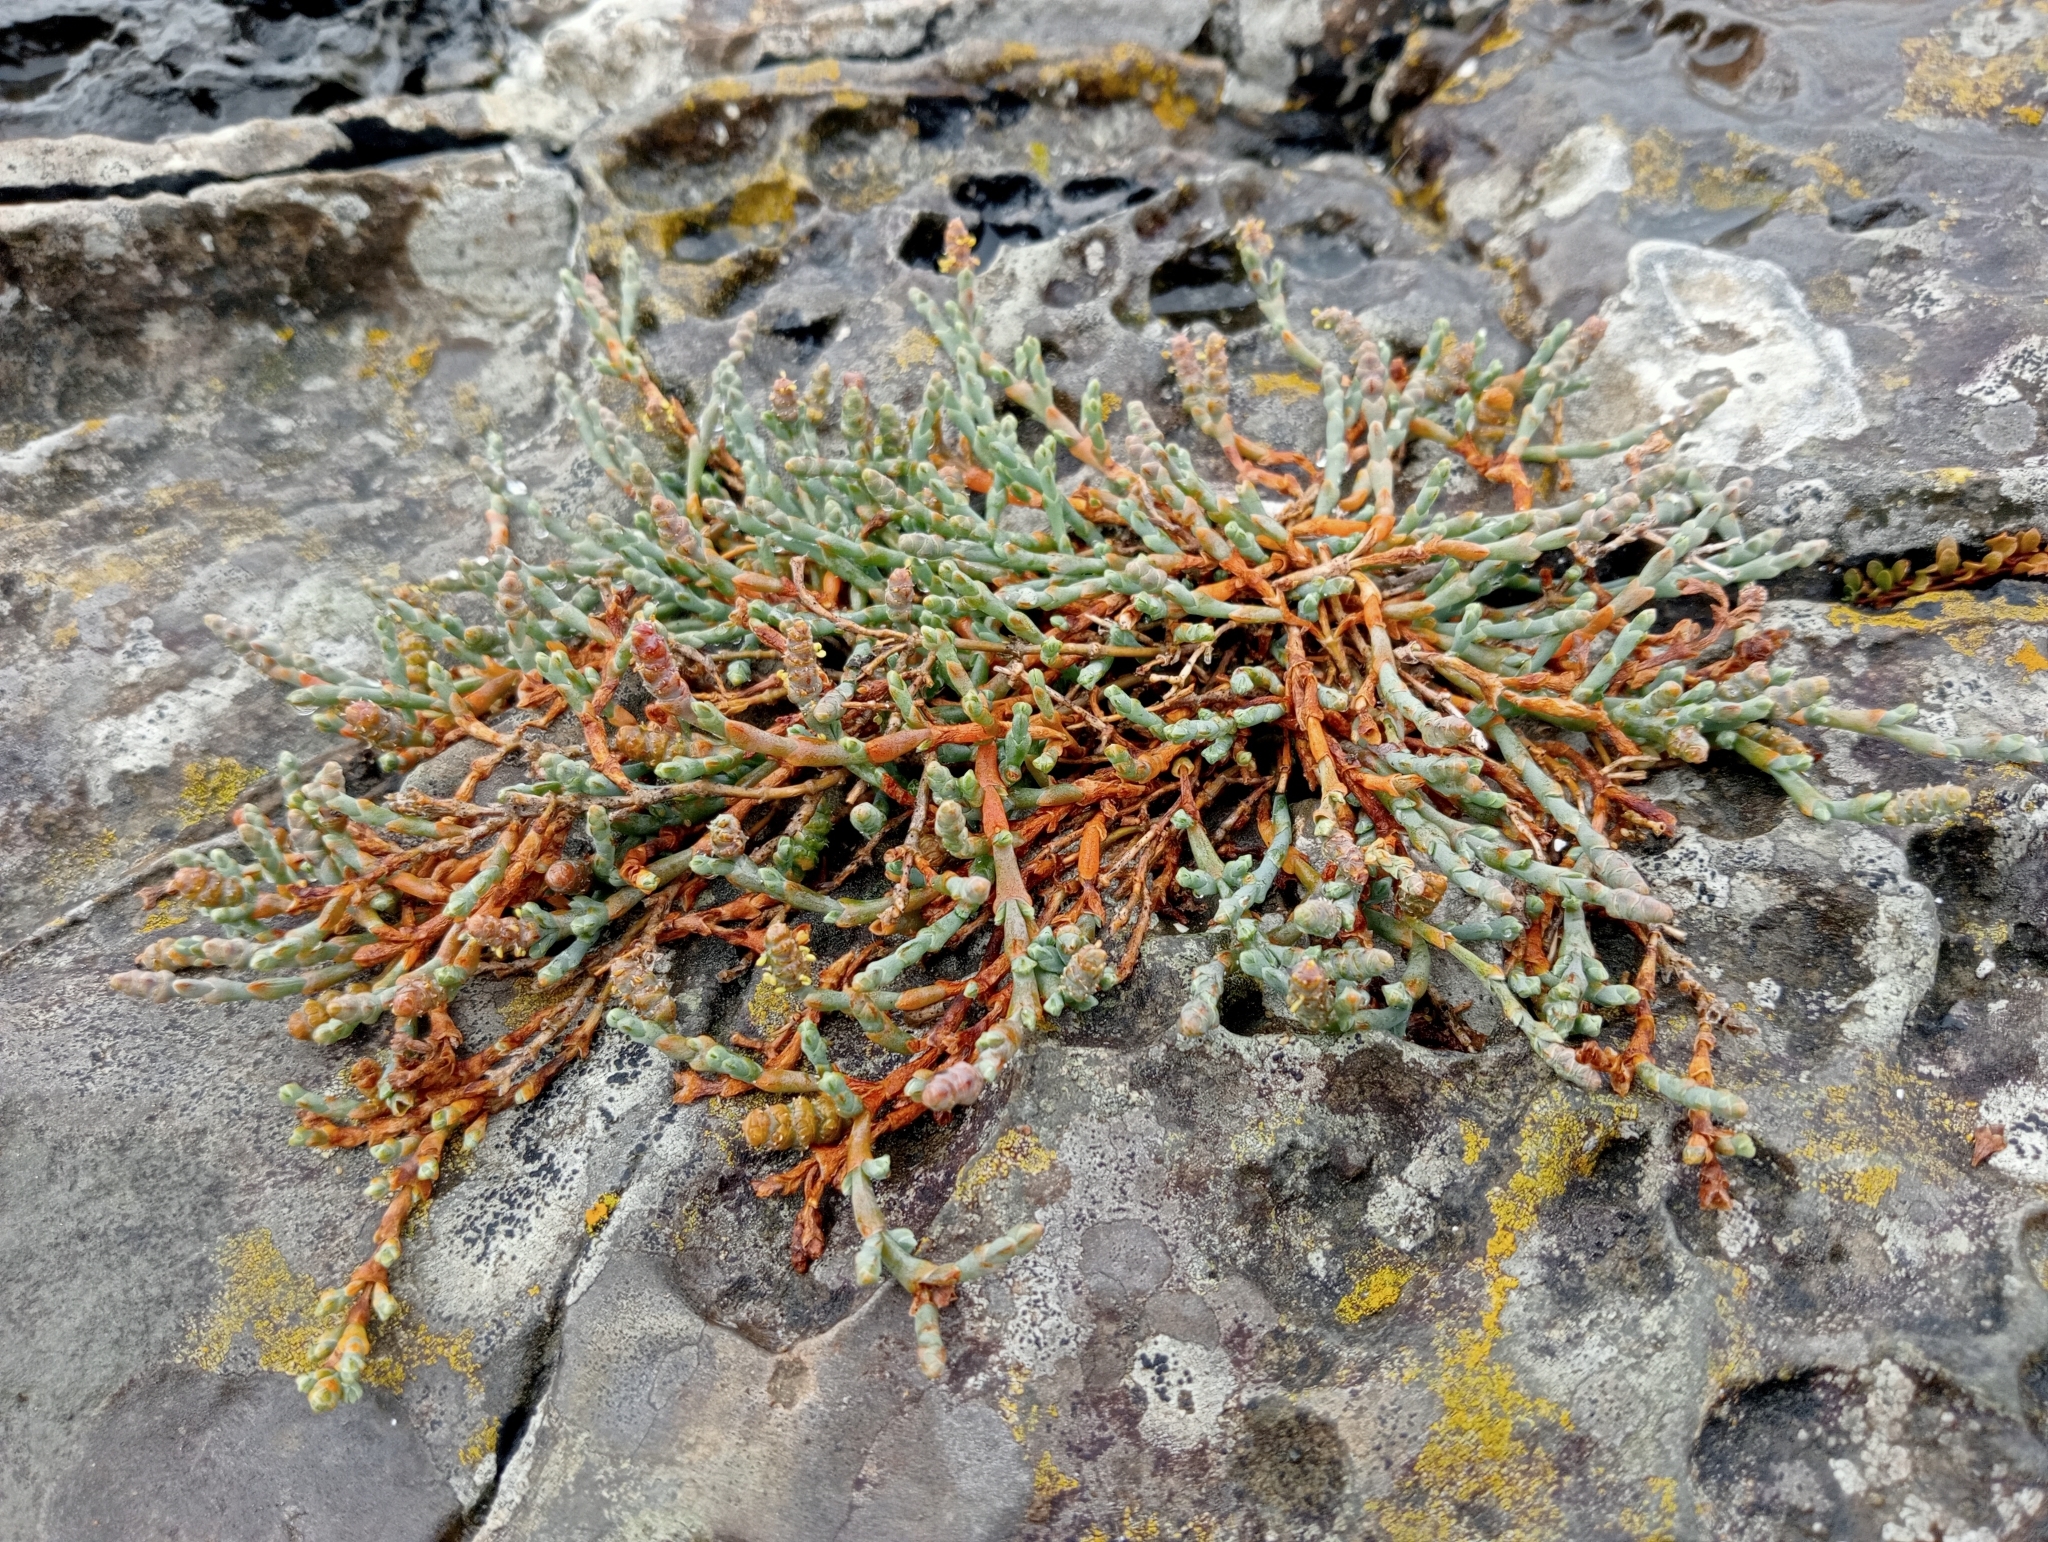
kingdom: Plantae
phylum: Tracheophyta
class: Magnoliopsida
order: Caryophyllales
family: Amaranthaceae
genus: Salicornia
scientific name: Salicornia quinqueflora
